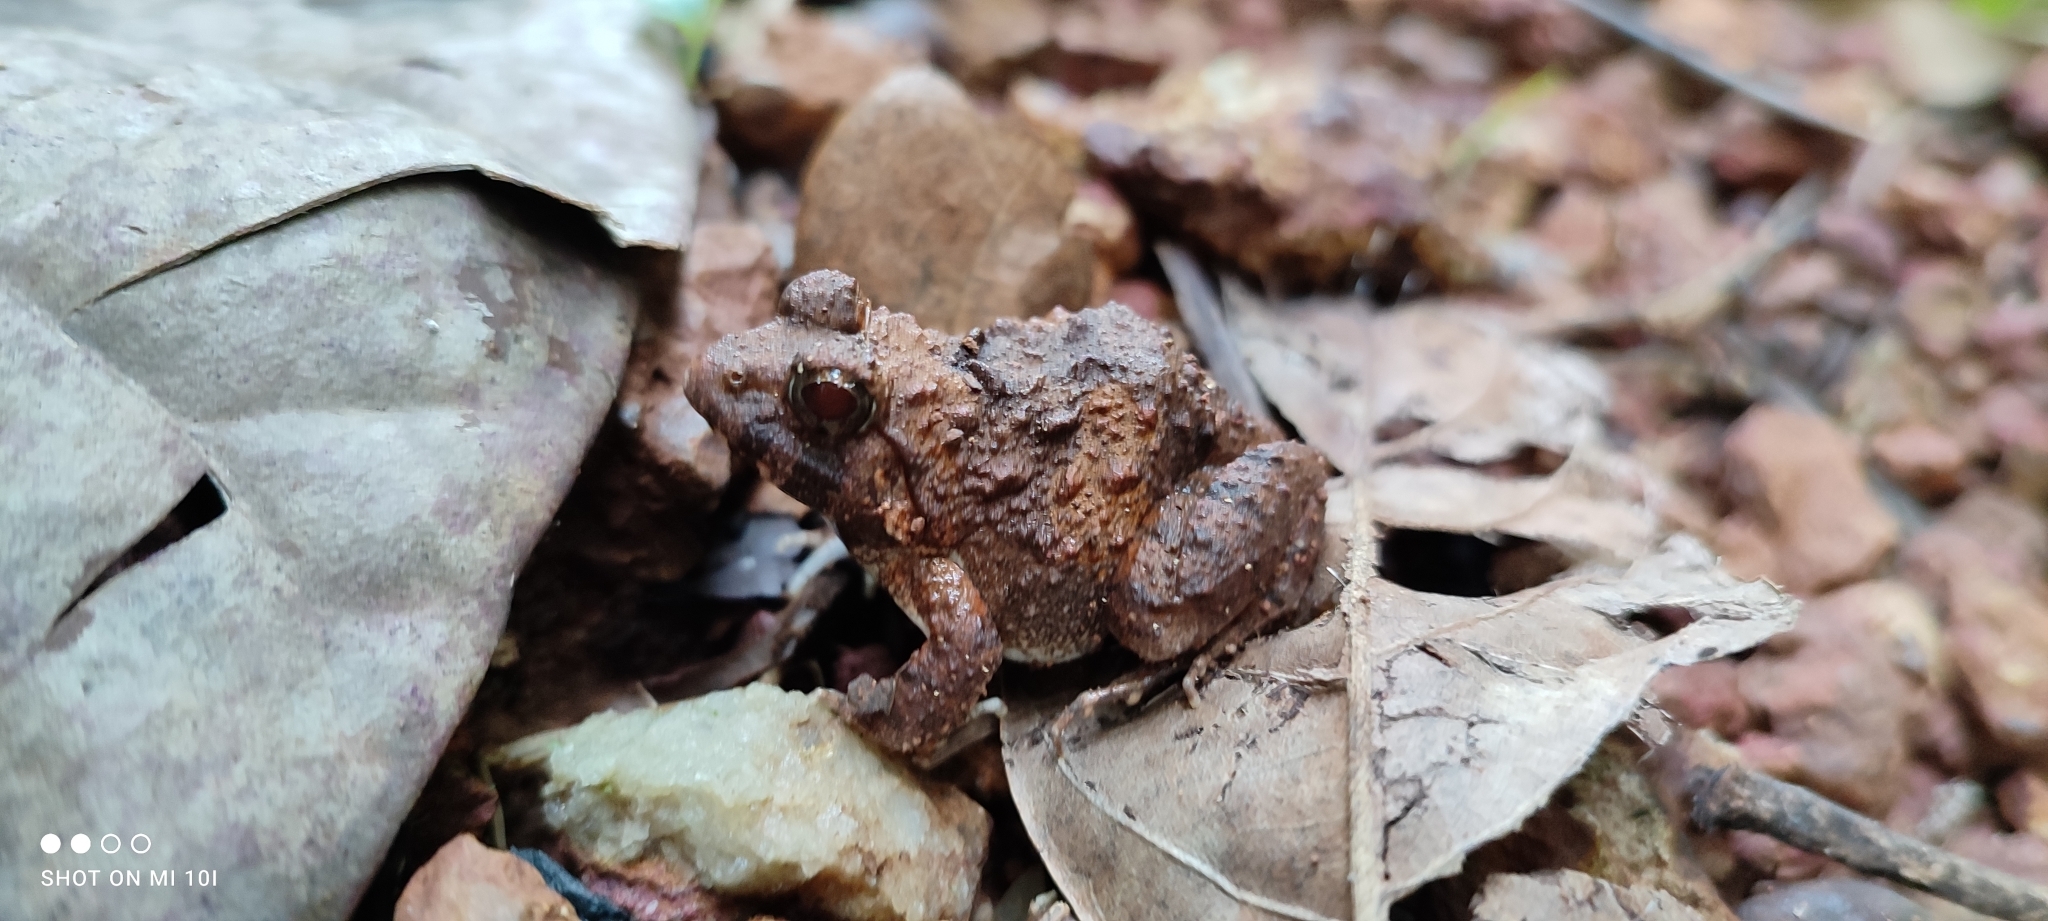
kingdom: Animalia
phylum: Chordata
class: Amphibia
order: Anura
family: Dicroglossidae
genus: Minervarya
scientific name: Minervarya rufescens
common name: Malabar wart frog
